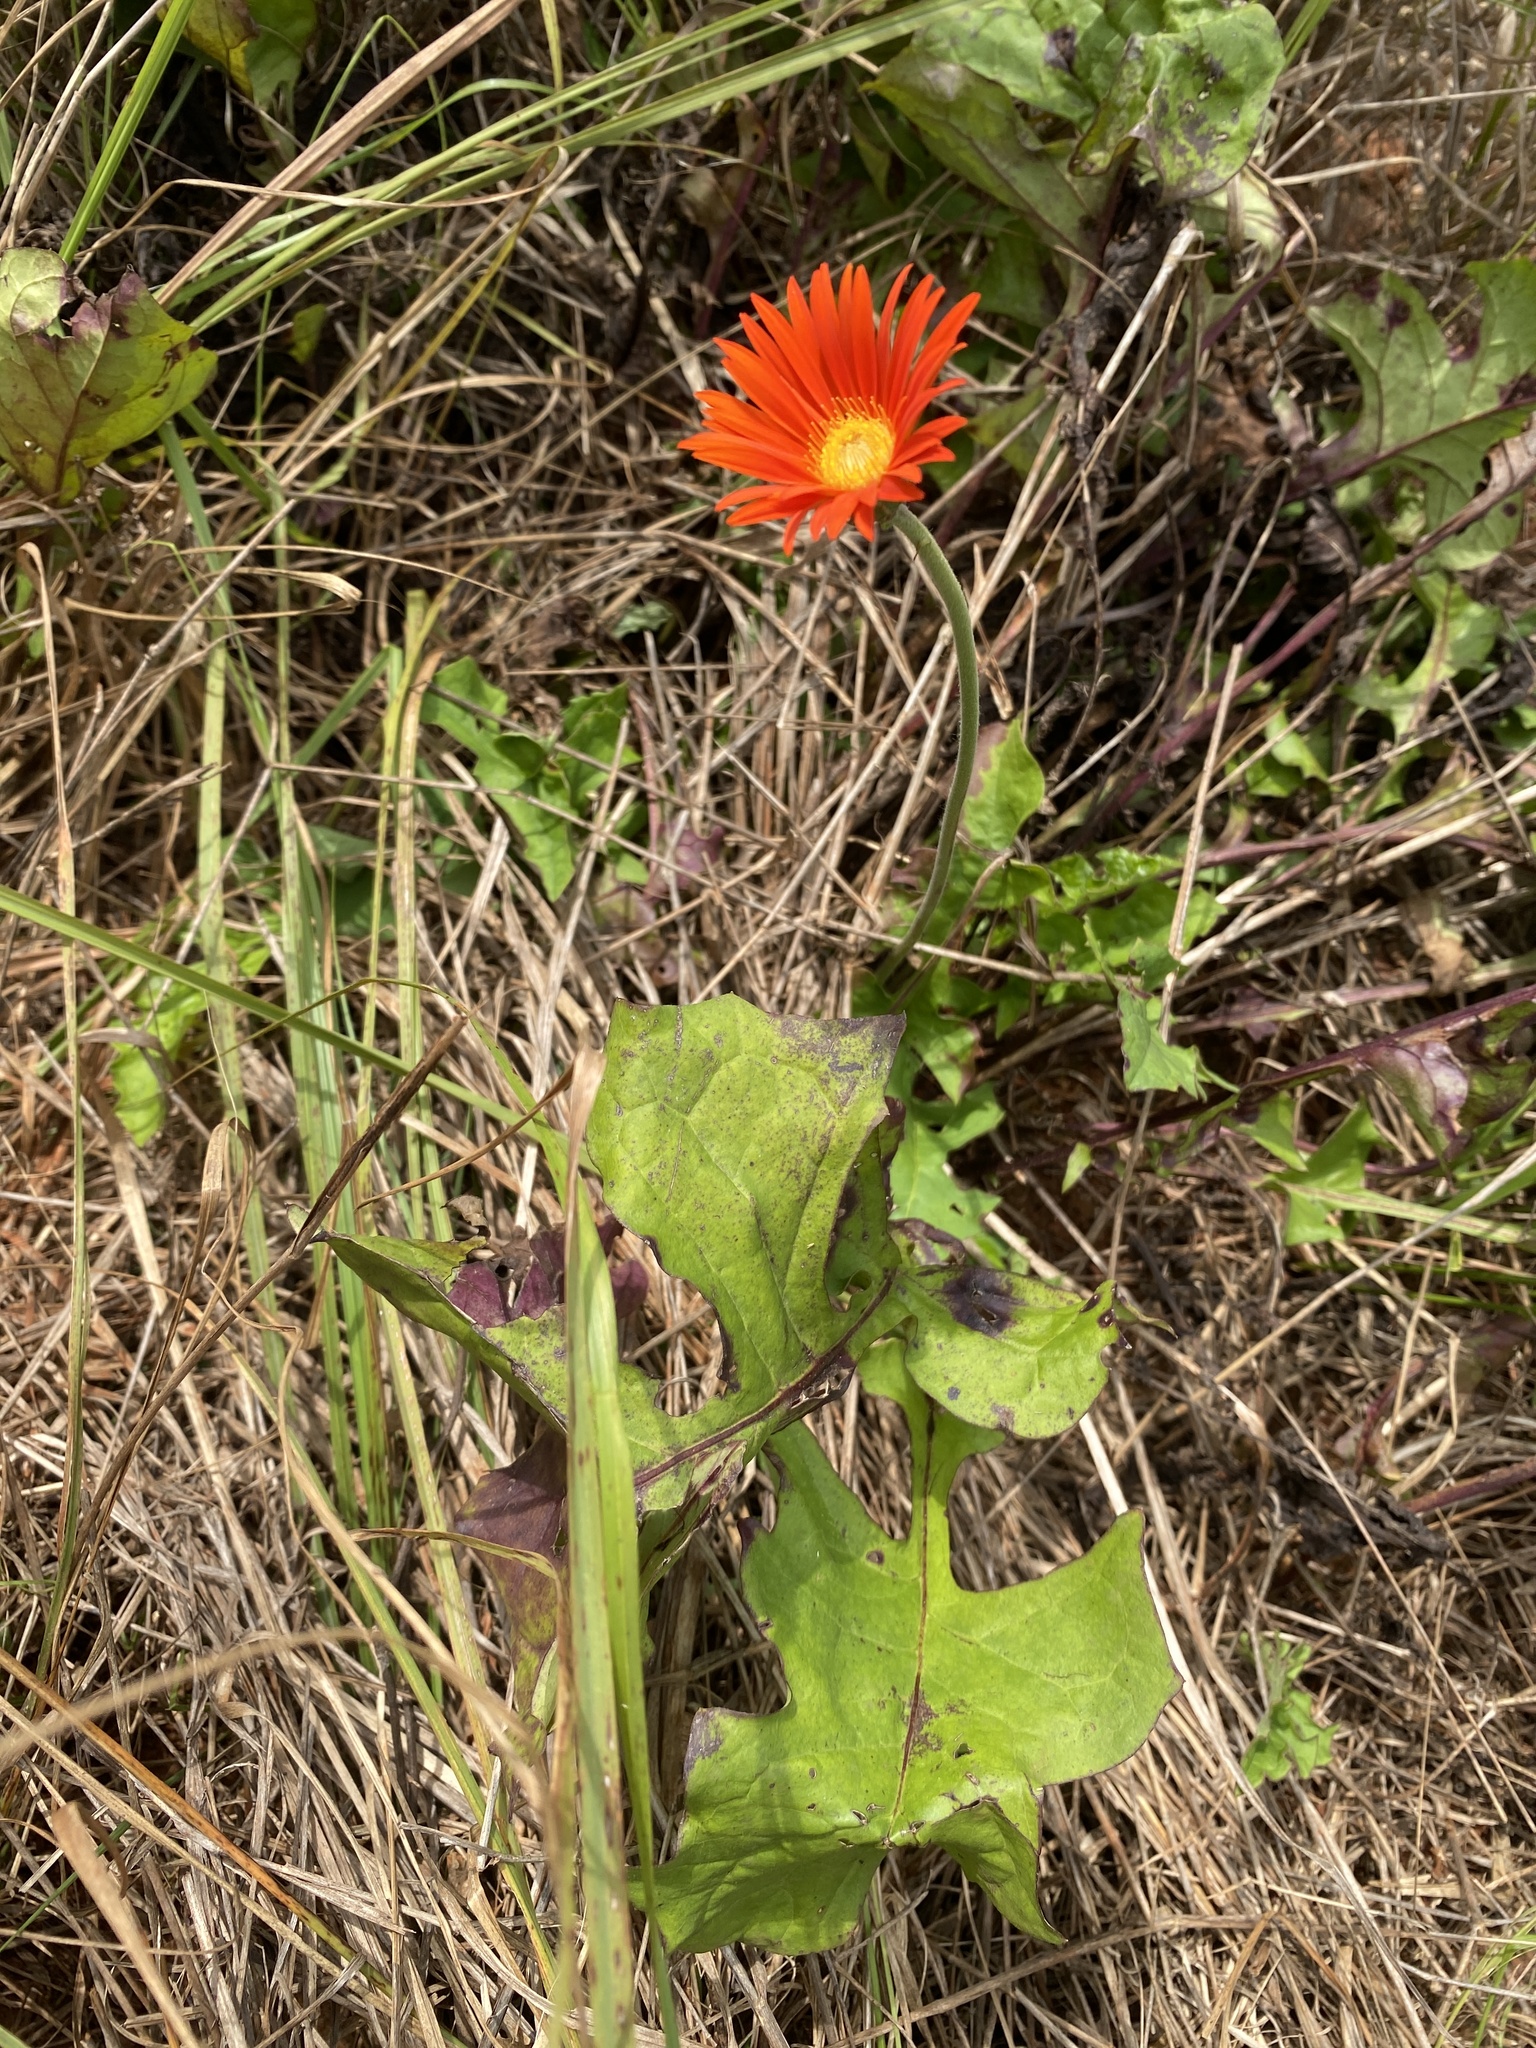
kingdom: Plantae
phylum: Tracheophyta
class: Magnoliopsida
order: Asterales
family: Asteraceae
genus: Gerbera
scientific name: Gerbera jamesonii
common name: African daisy
